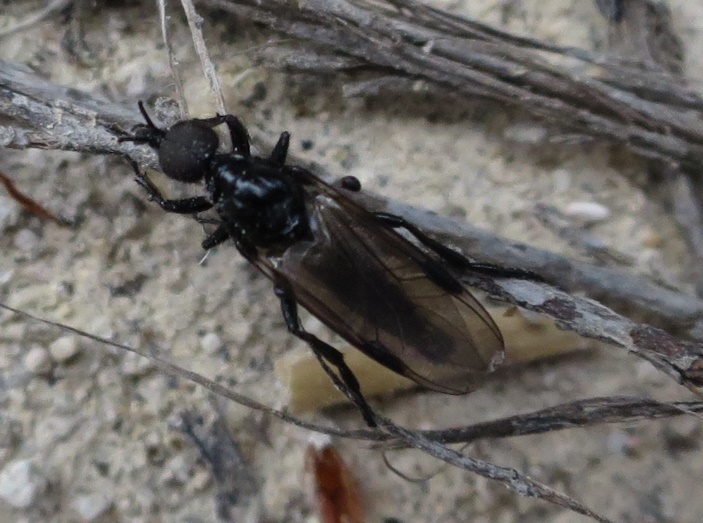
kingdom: Animalia
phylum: Arthropoda
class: Insecta
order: Diptera
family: Bibionidae
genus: Dilophus
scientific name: Dilophus nigrostigma
